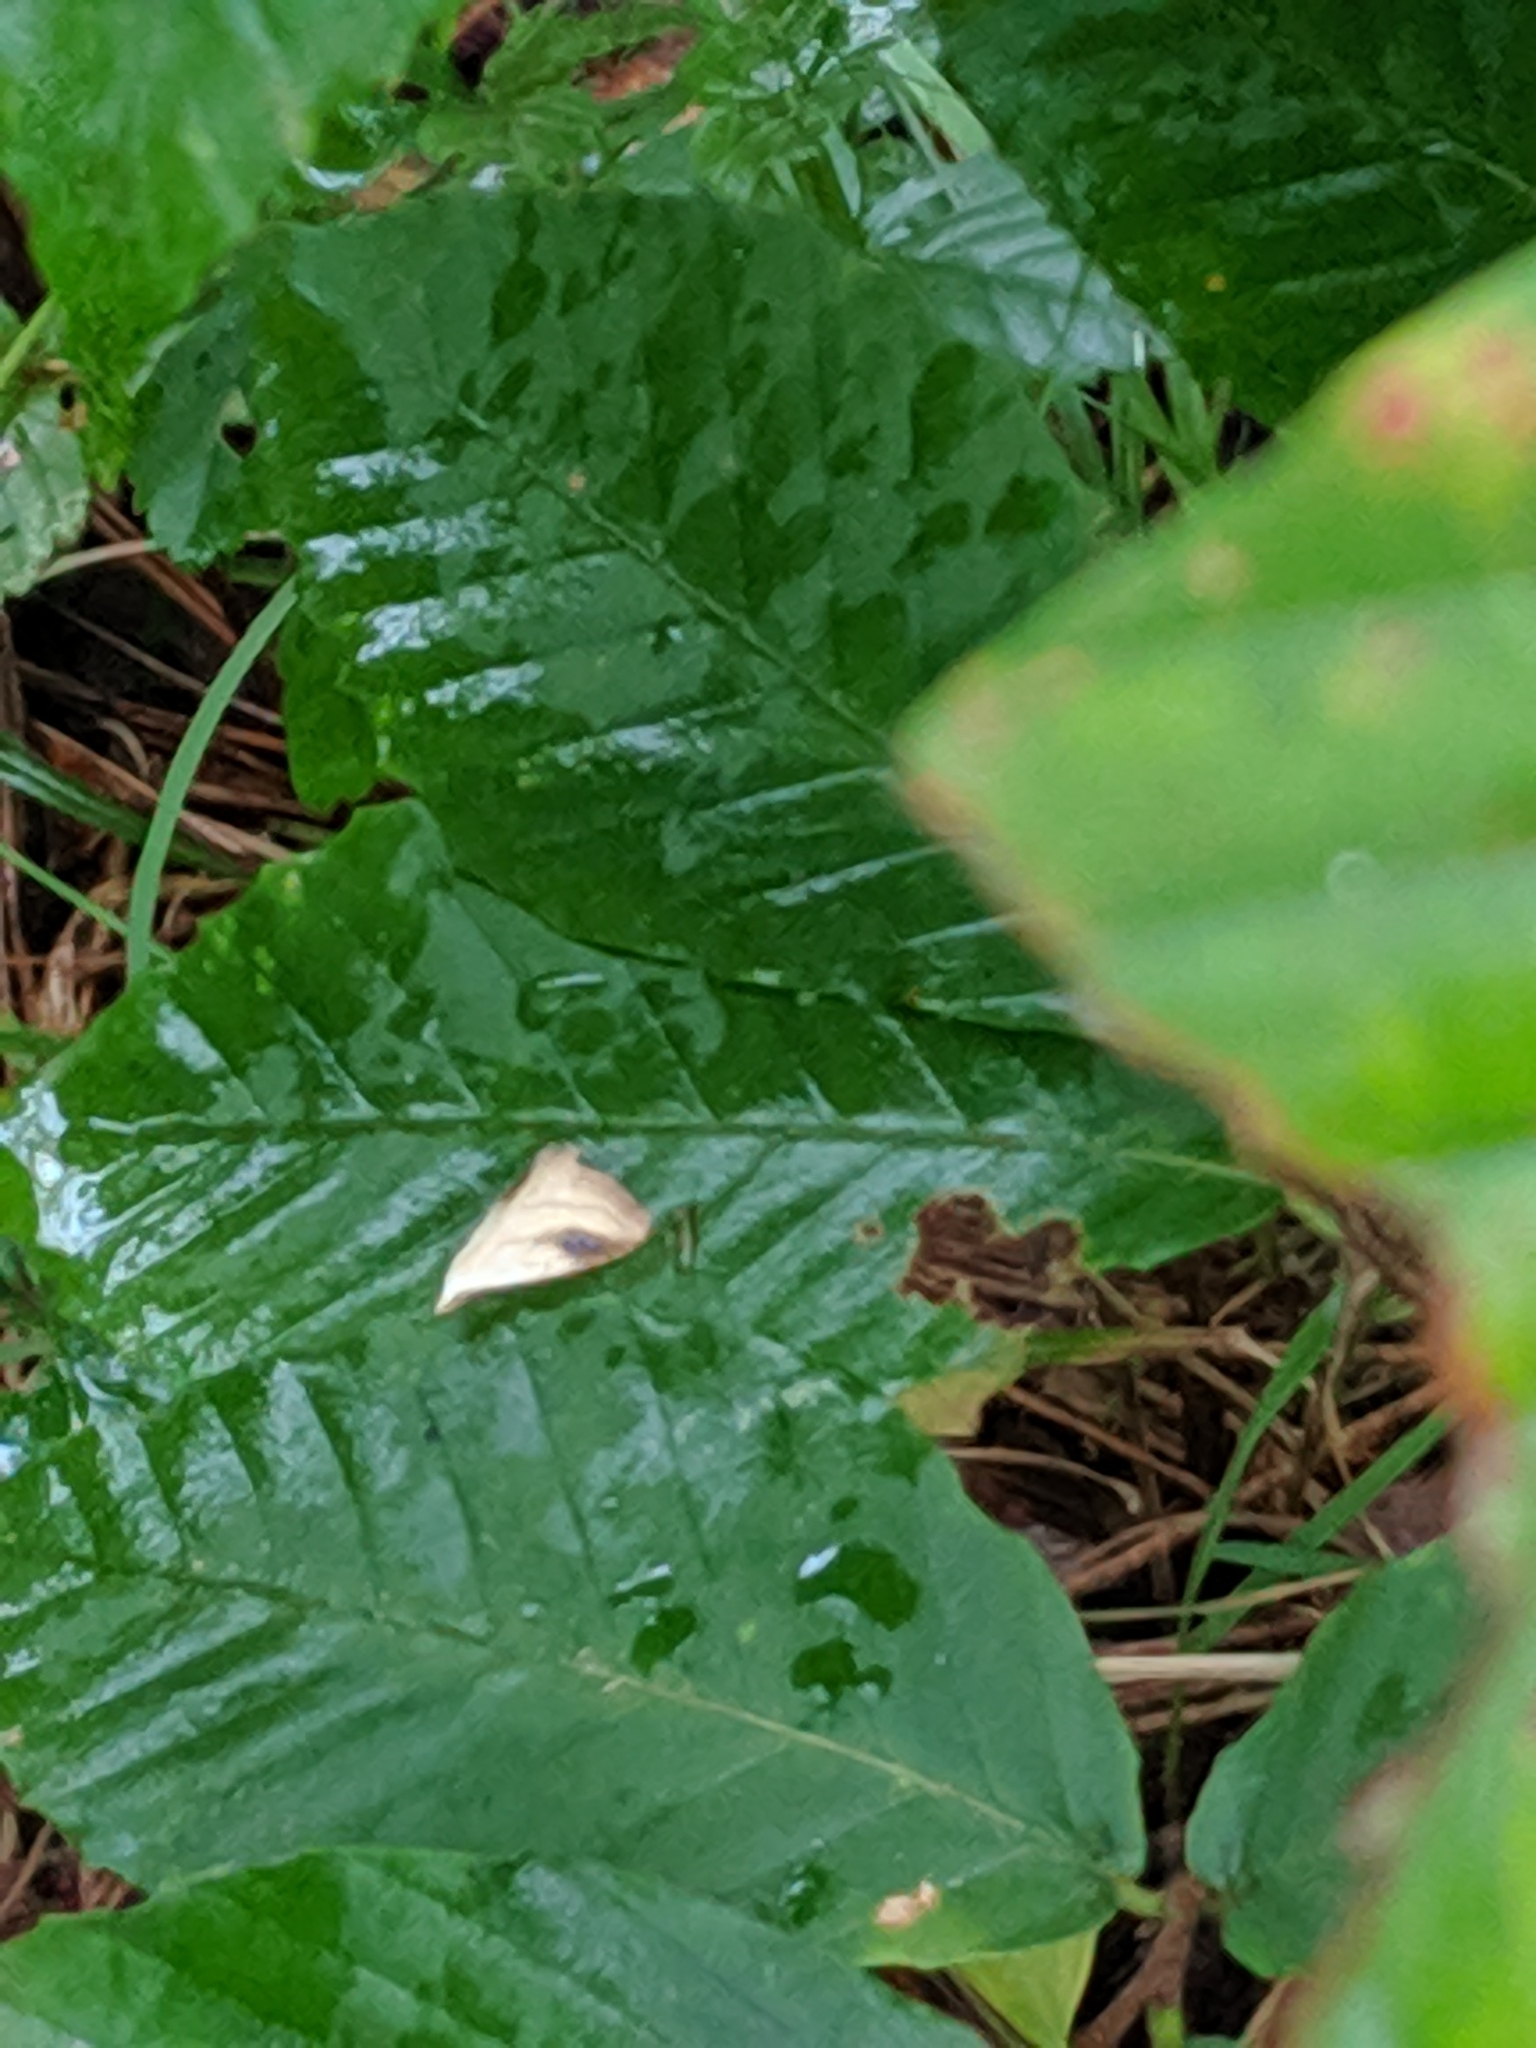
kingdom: Animalia
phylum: Arthropoda
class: Insecta
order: Lepidoptera
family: Erebidae
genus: Rivula
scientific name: Rivula propinqualis
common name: Spotted grass moth
